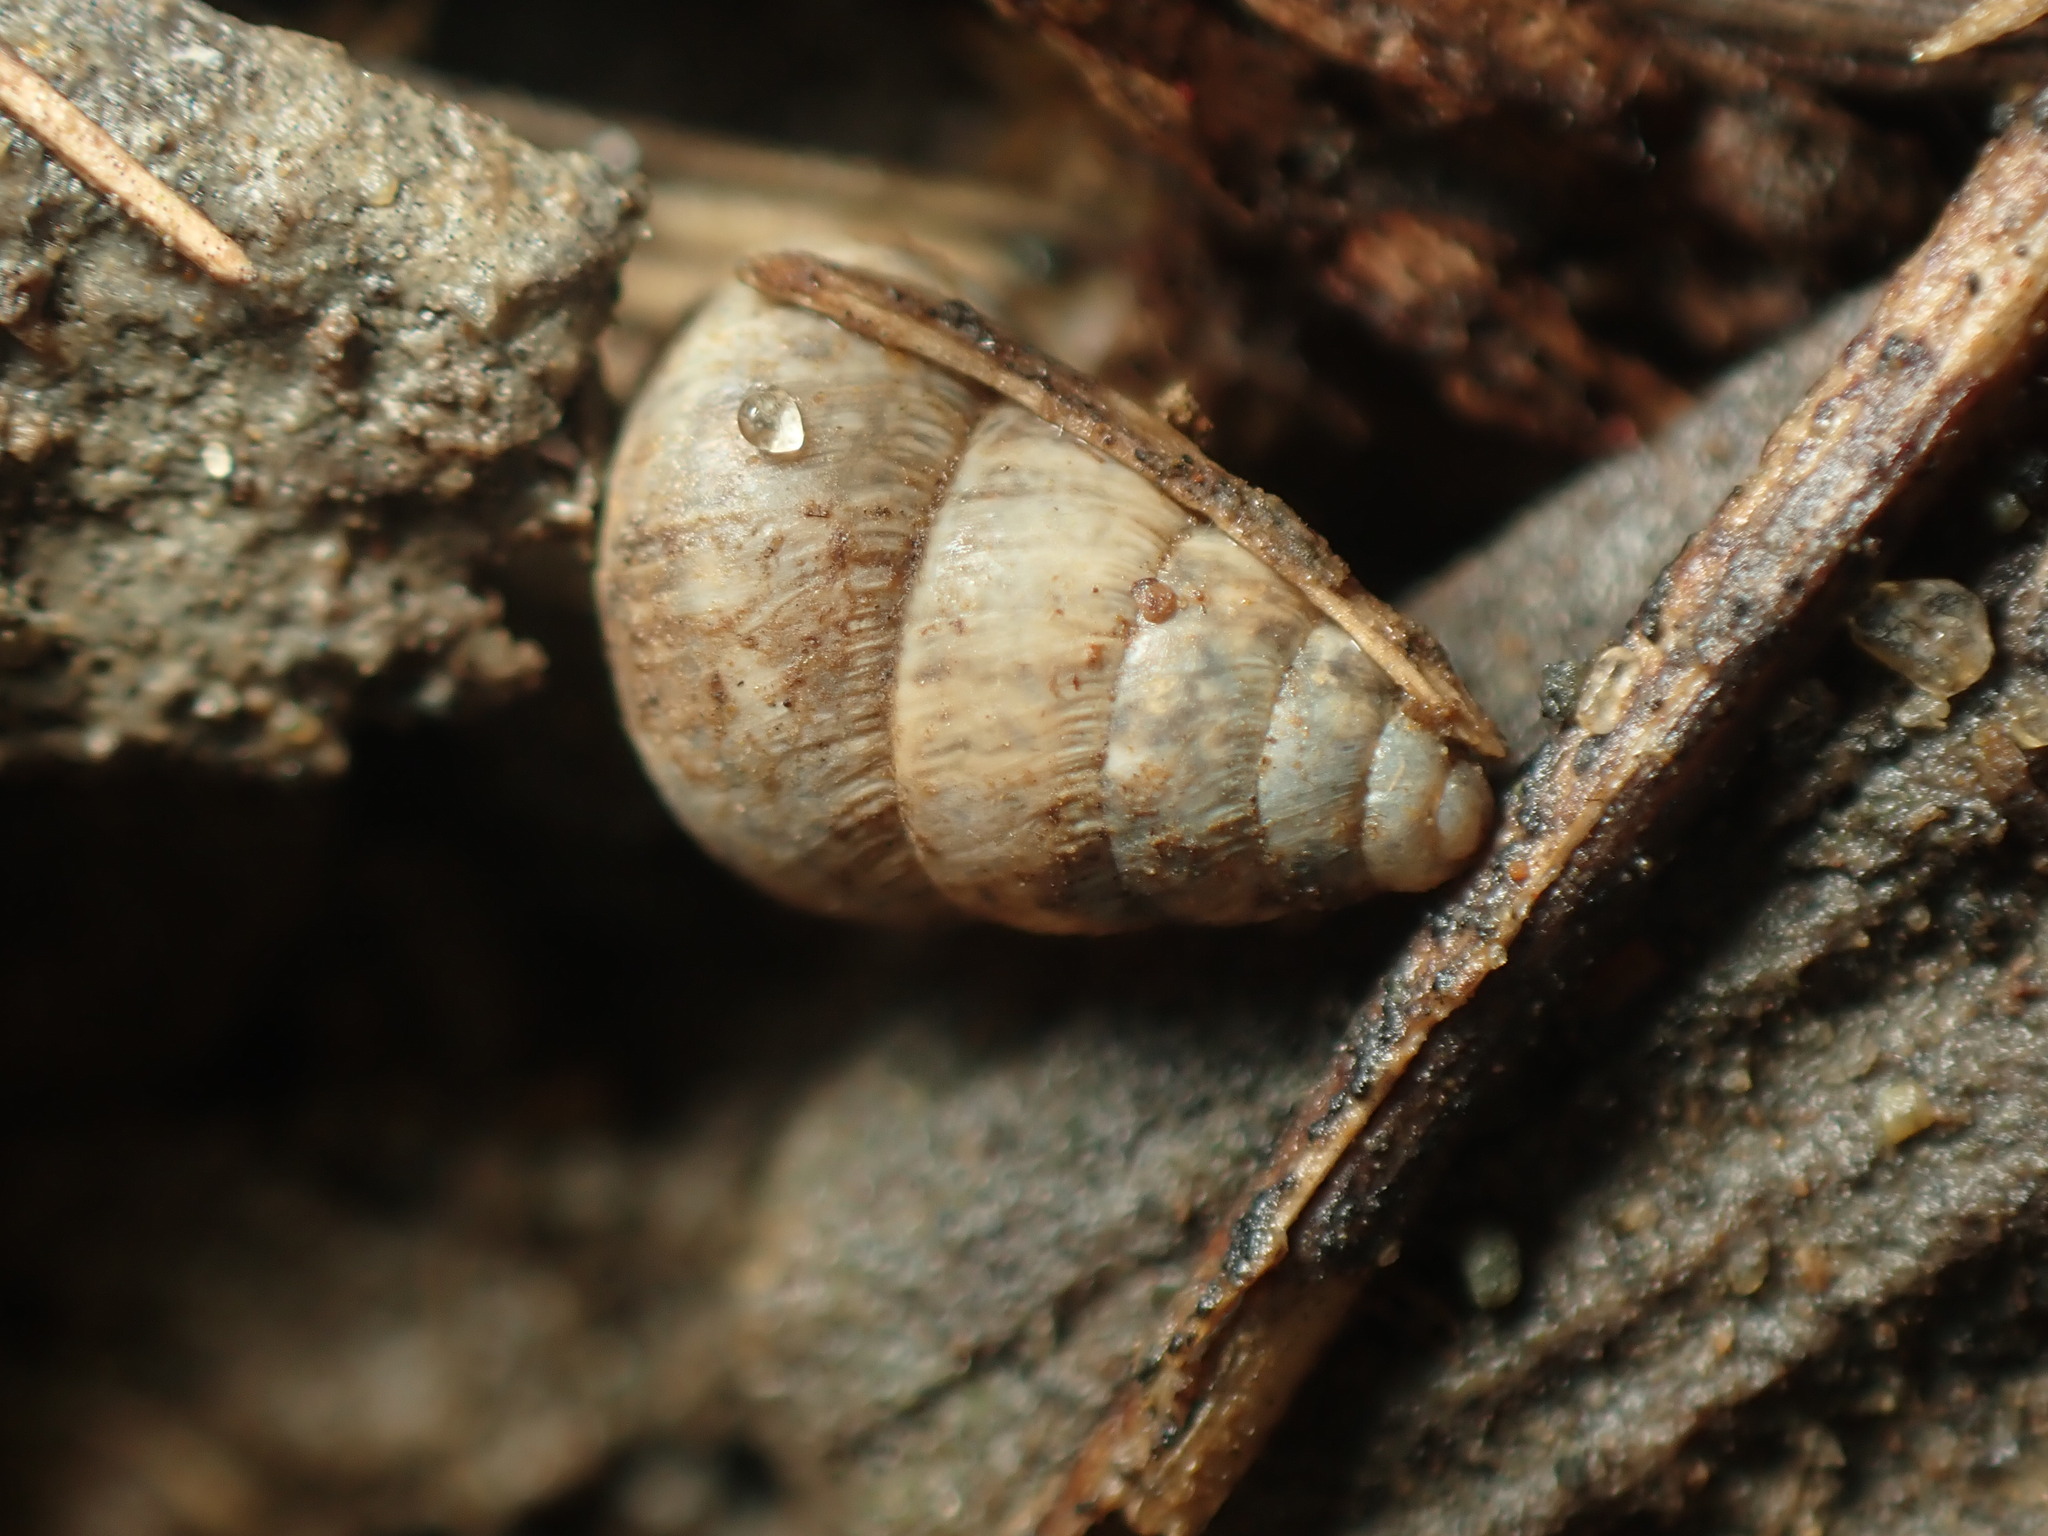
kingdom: Animalia
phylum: Mollusca
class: Gastropoda
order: Stylommatophora
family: Geomitridae
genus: Cochlicella
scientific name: Cochlicella barbara
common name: Potbellied helicellid
